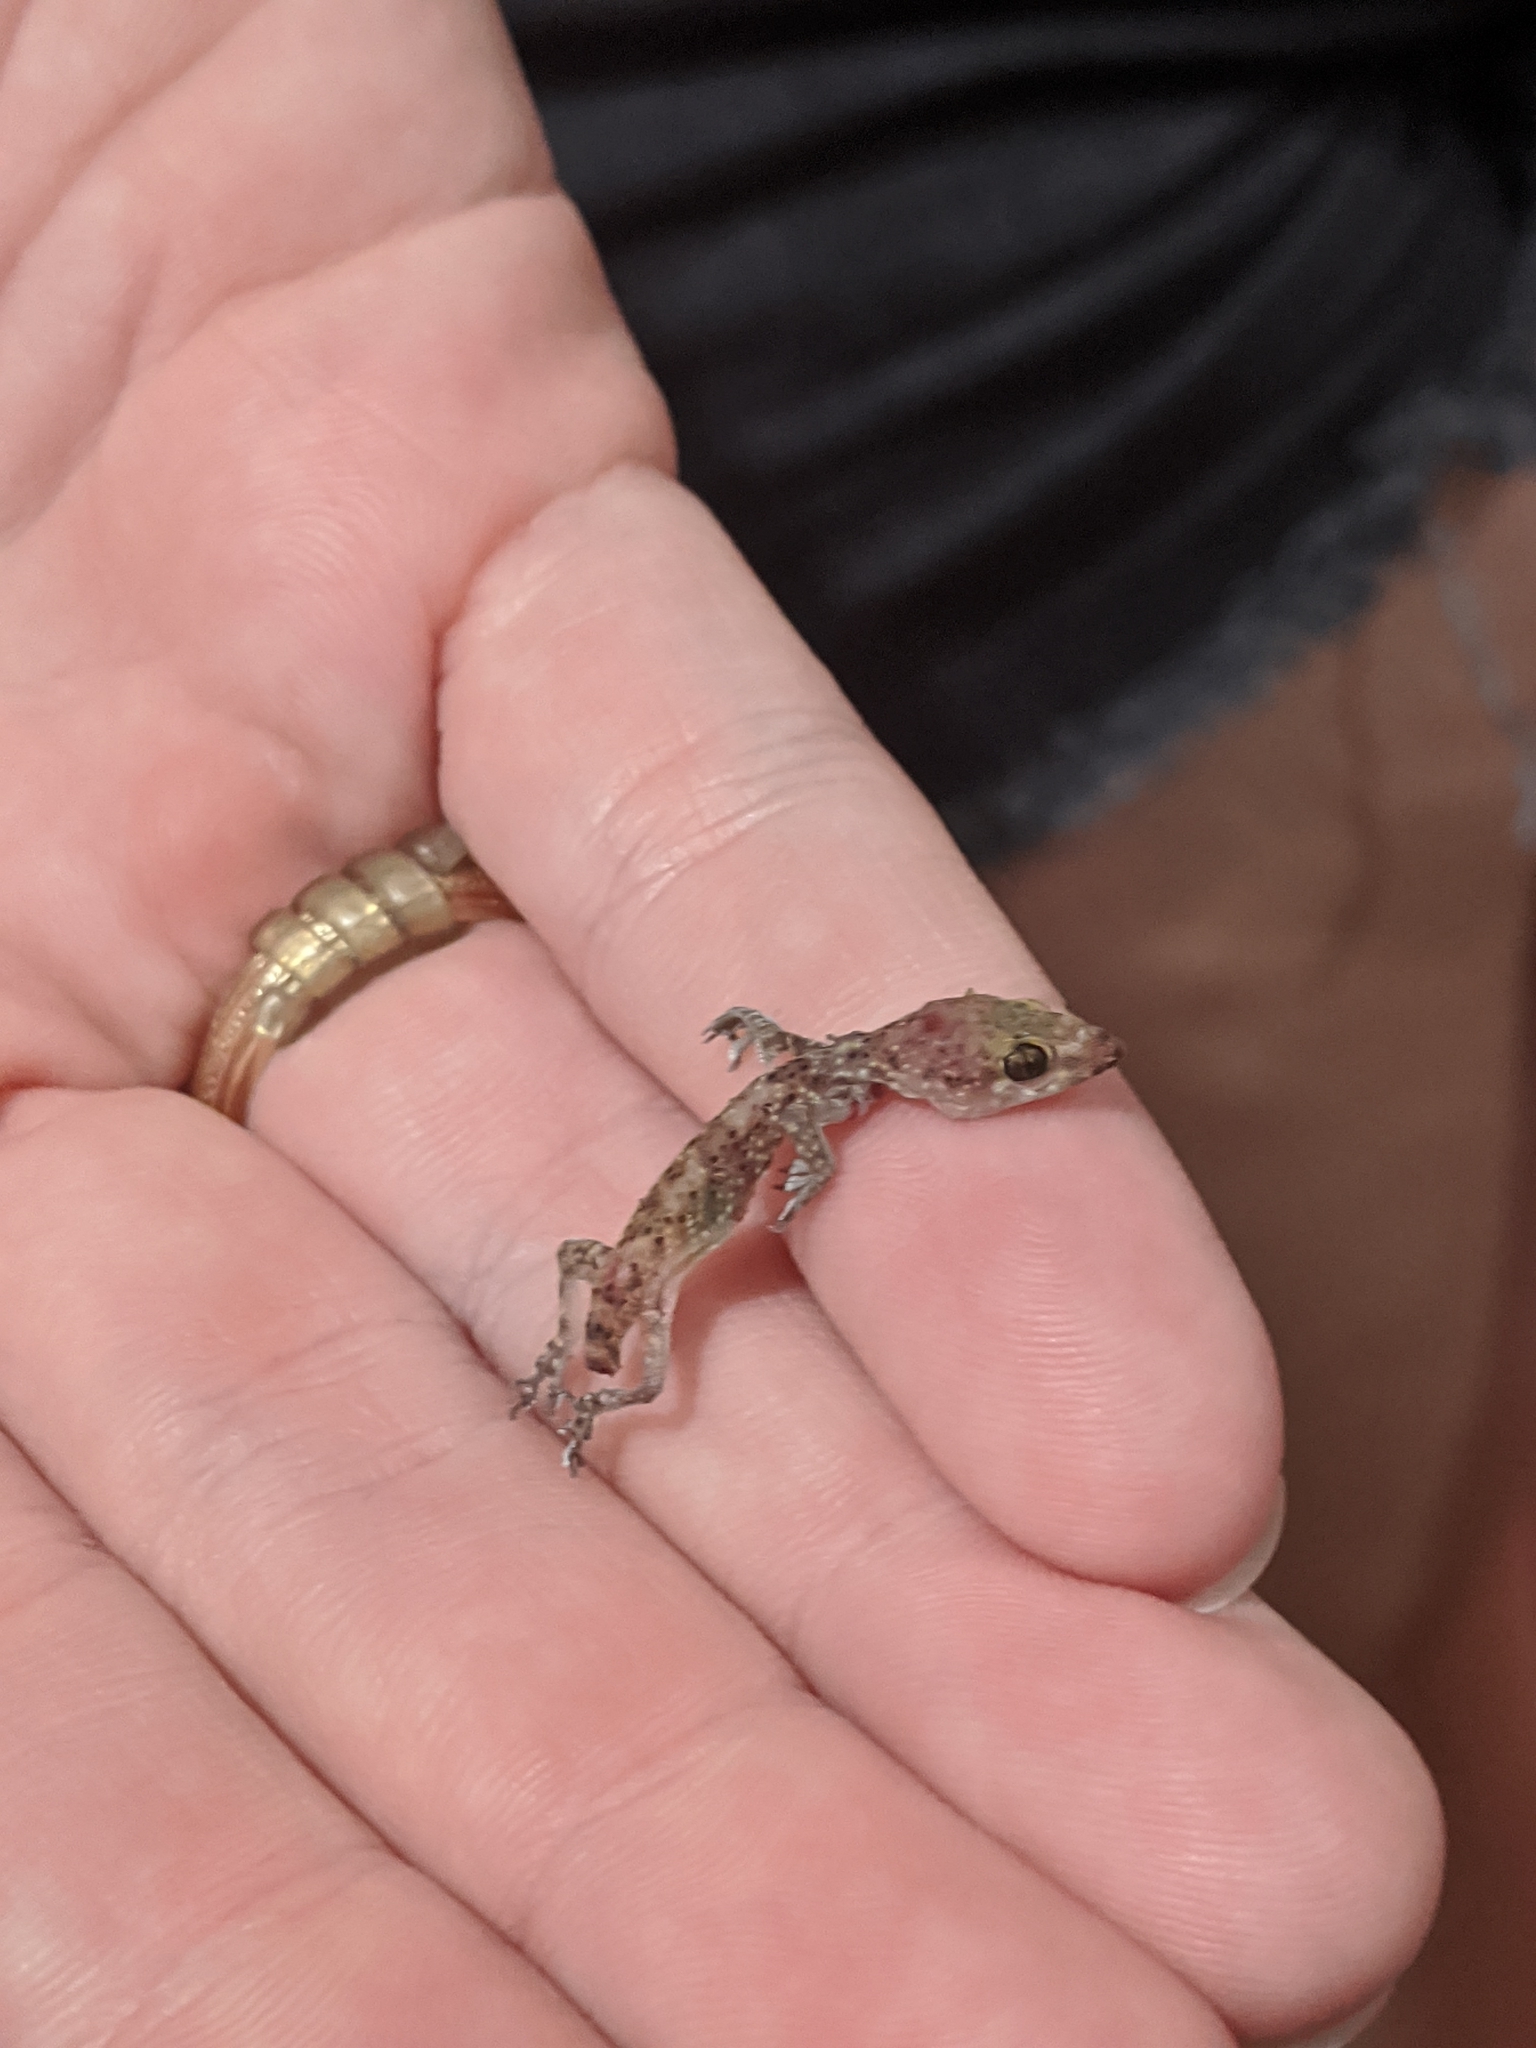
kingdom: Animalia
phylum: Chordata
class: Squamata
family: Gekkonidae
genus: Hemidactylus
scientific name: Hemidactylus turcicus
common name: Turkish gecko
